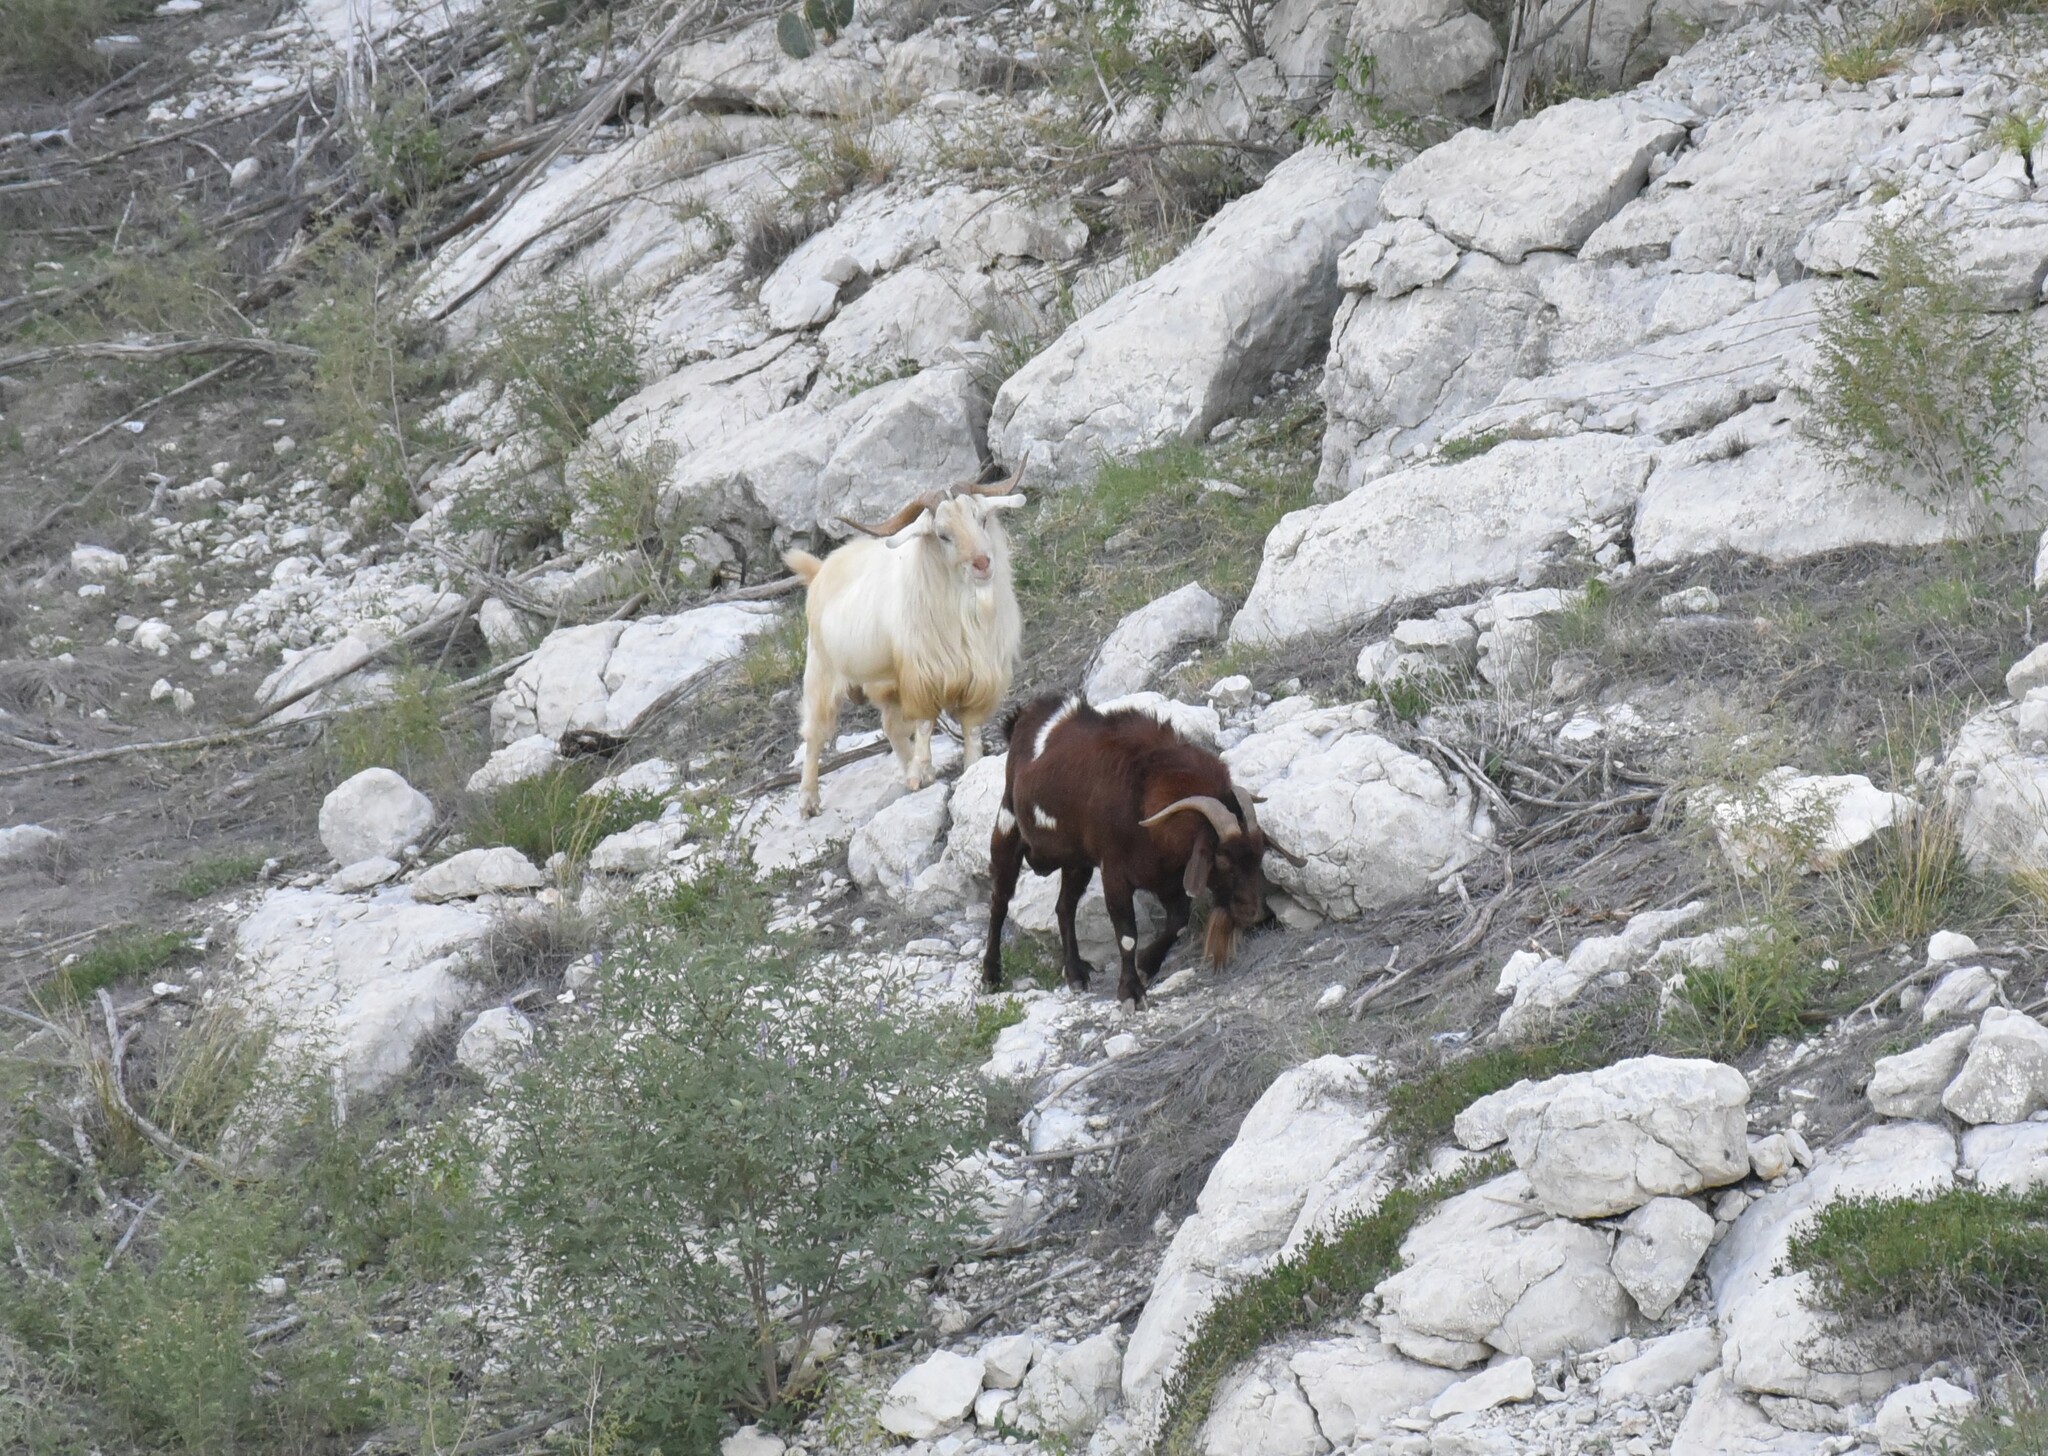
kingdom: Animalia
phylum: Chordata
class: Mammalia
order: Artiodactyla
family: Bovidae
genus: Capra
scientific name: Capra hircus
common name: Domestic goat
